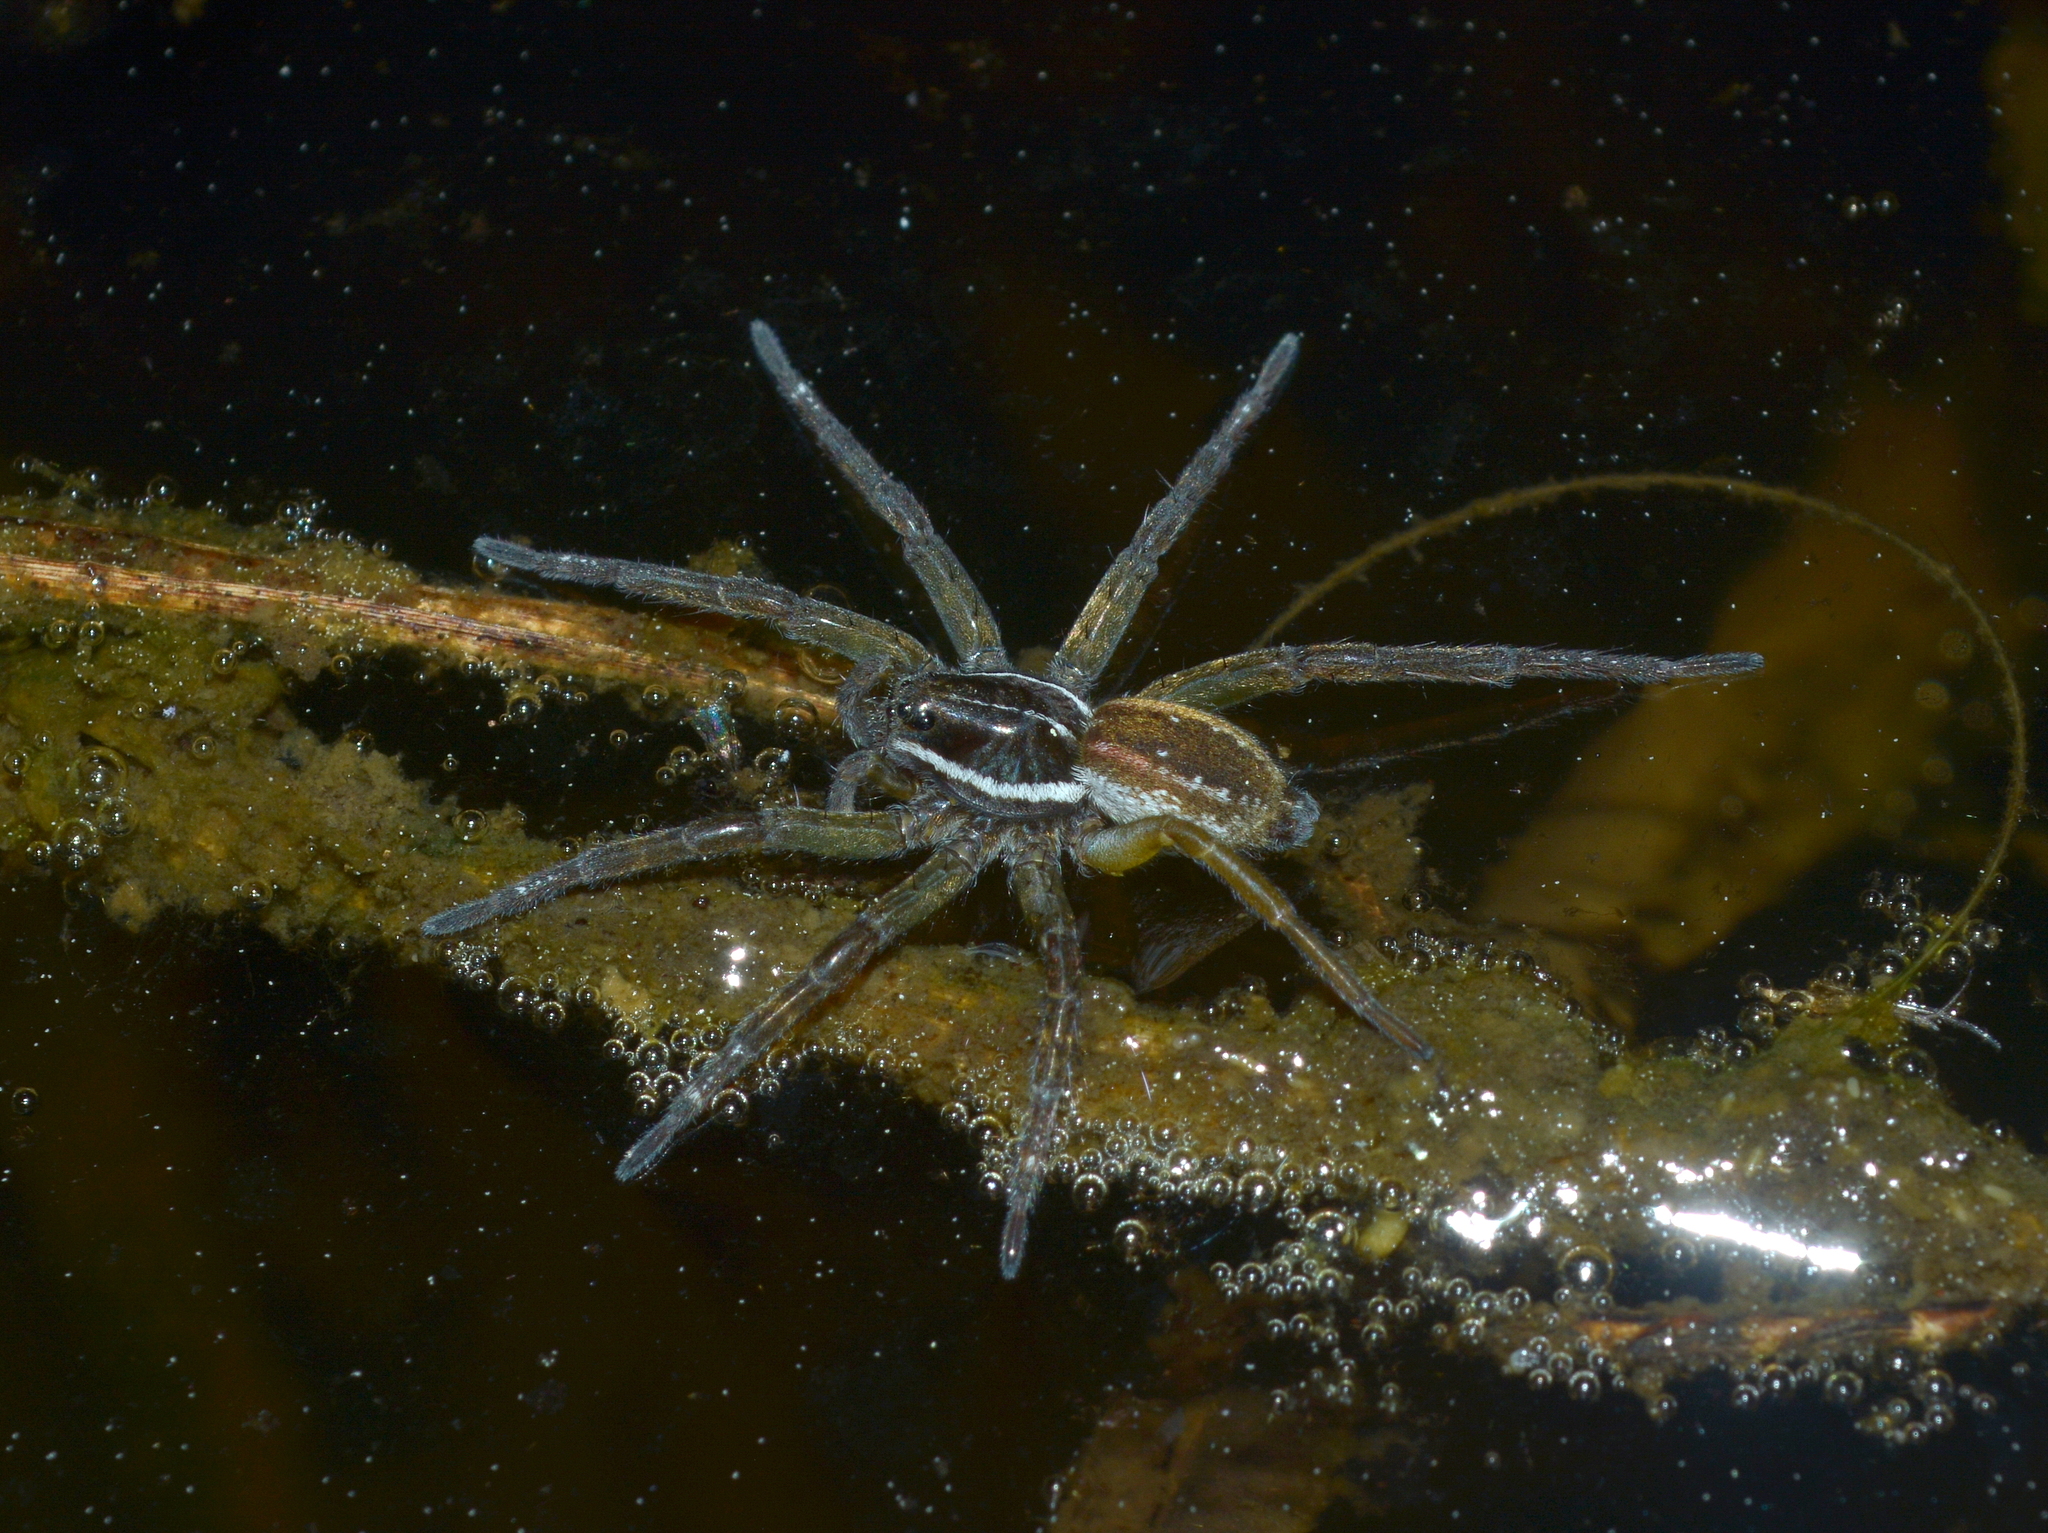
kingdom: Animalia
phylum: Arthropoda
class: Arachnida
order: Araneae
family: Lycosidae
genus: Diapontia
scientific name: Diapontia uruguayensis
